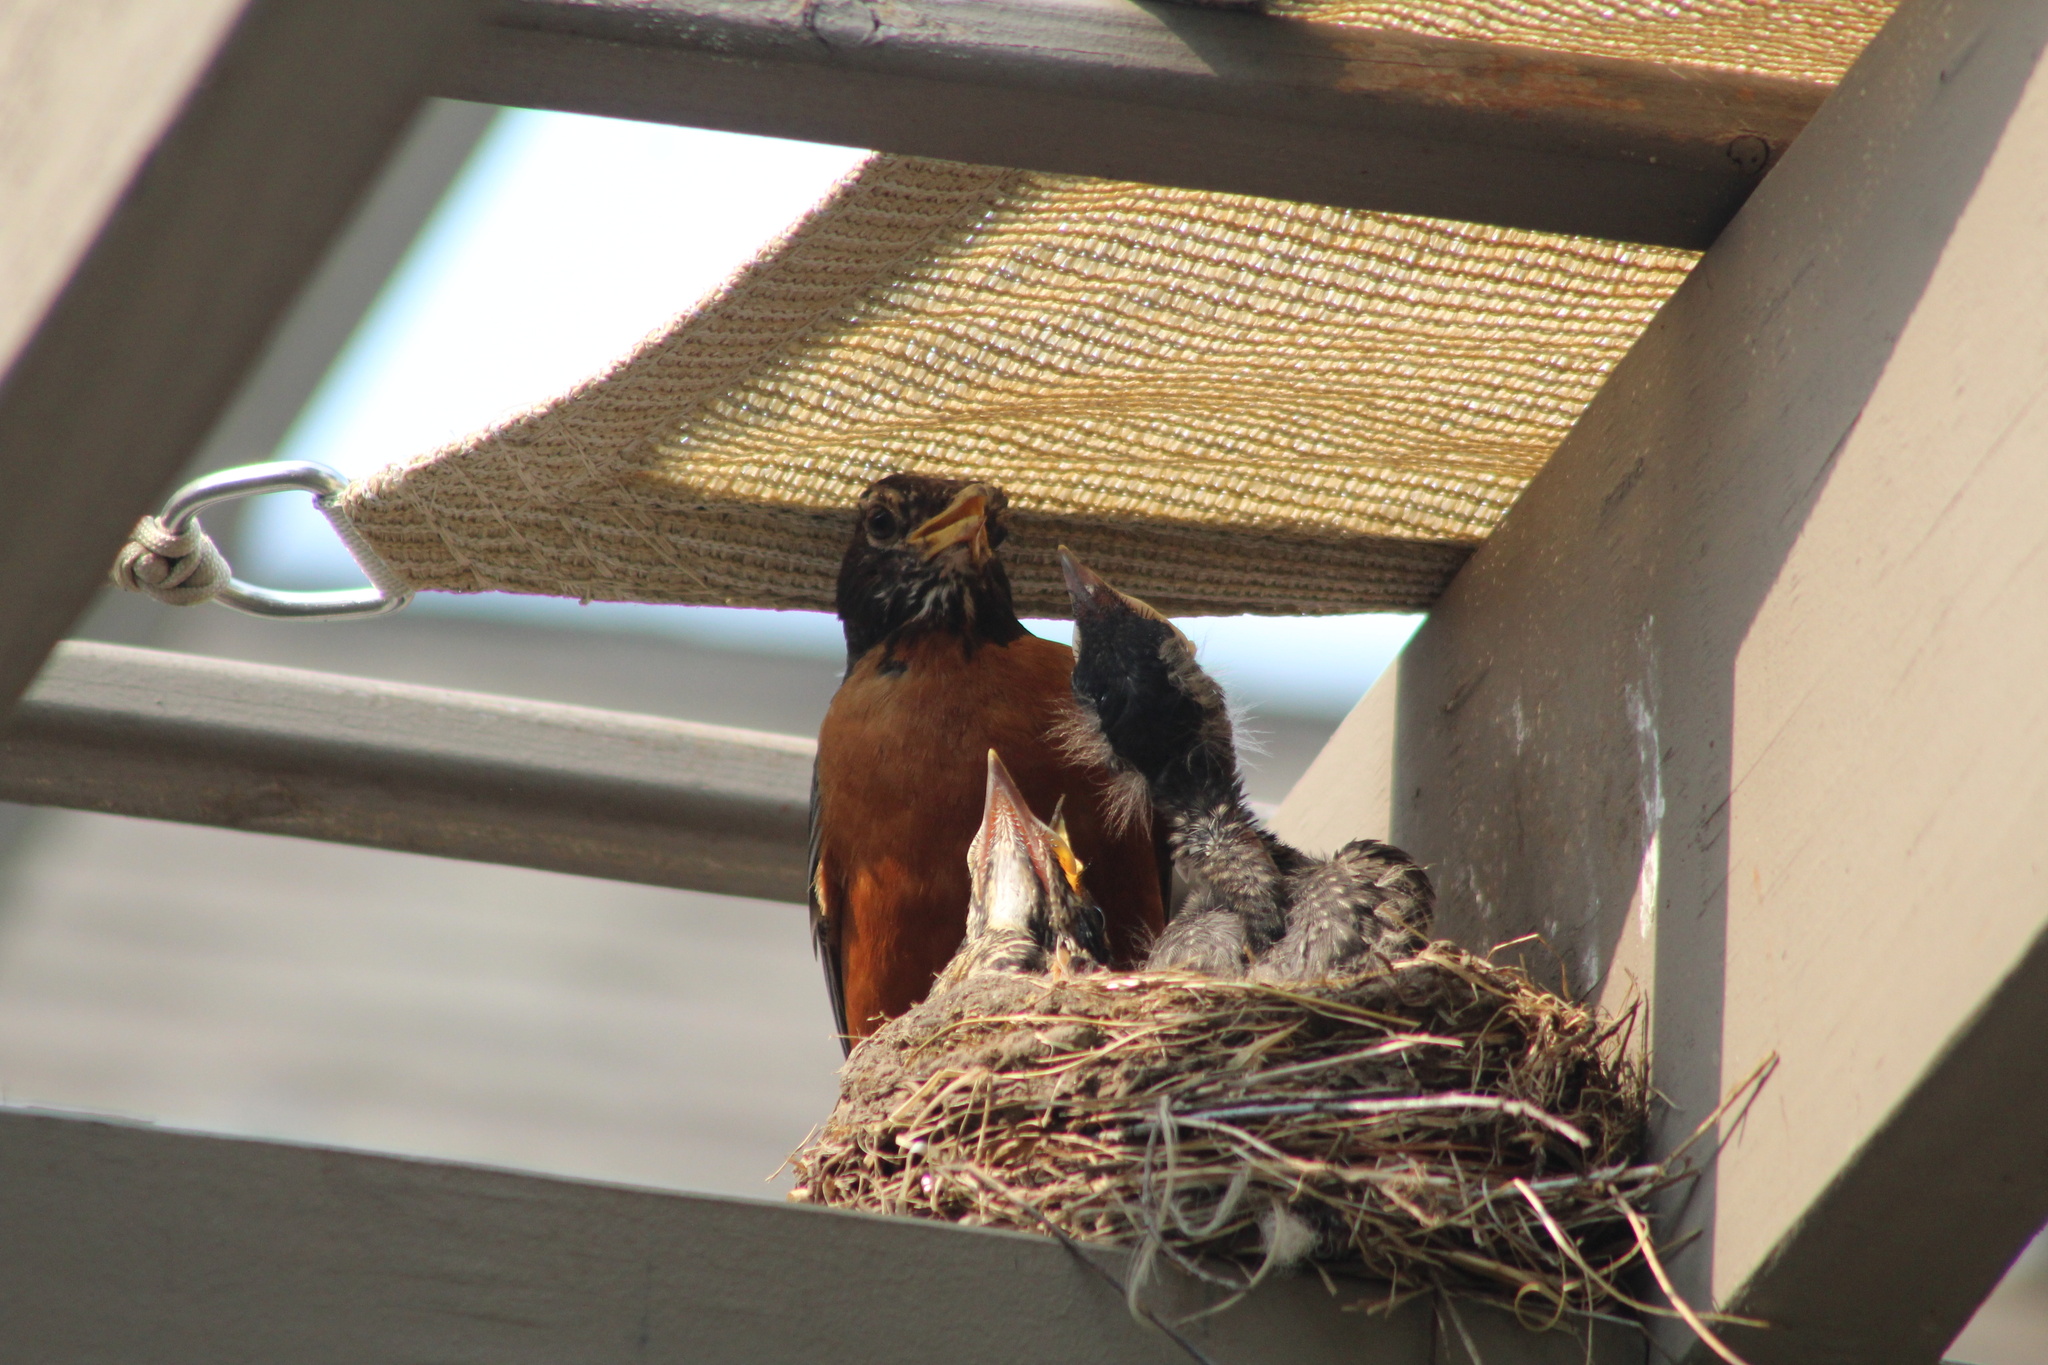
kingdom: Animalia
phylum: Chordata
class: Aves
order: Passeriformes
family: Turdidae
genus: Turdus
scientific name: Turdus migratorius
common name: American robin
